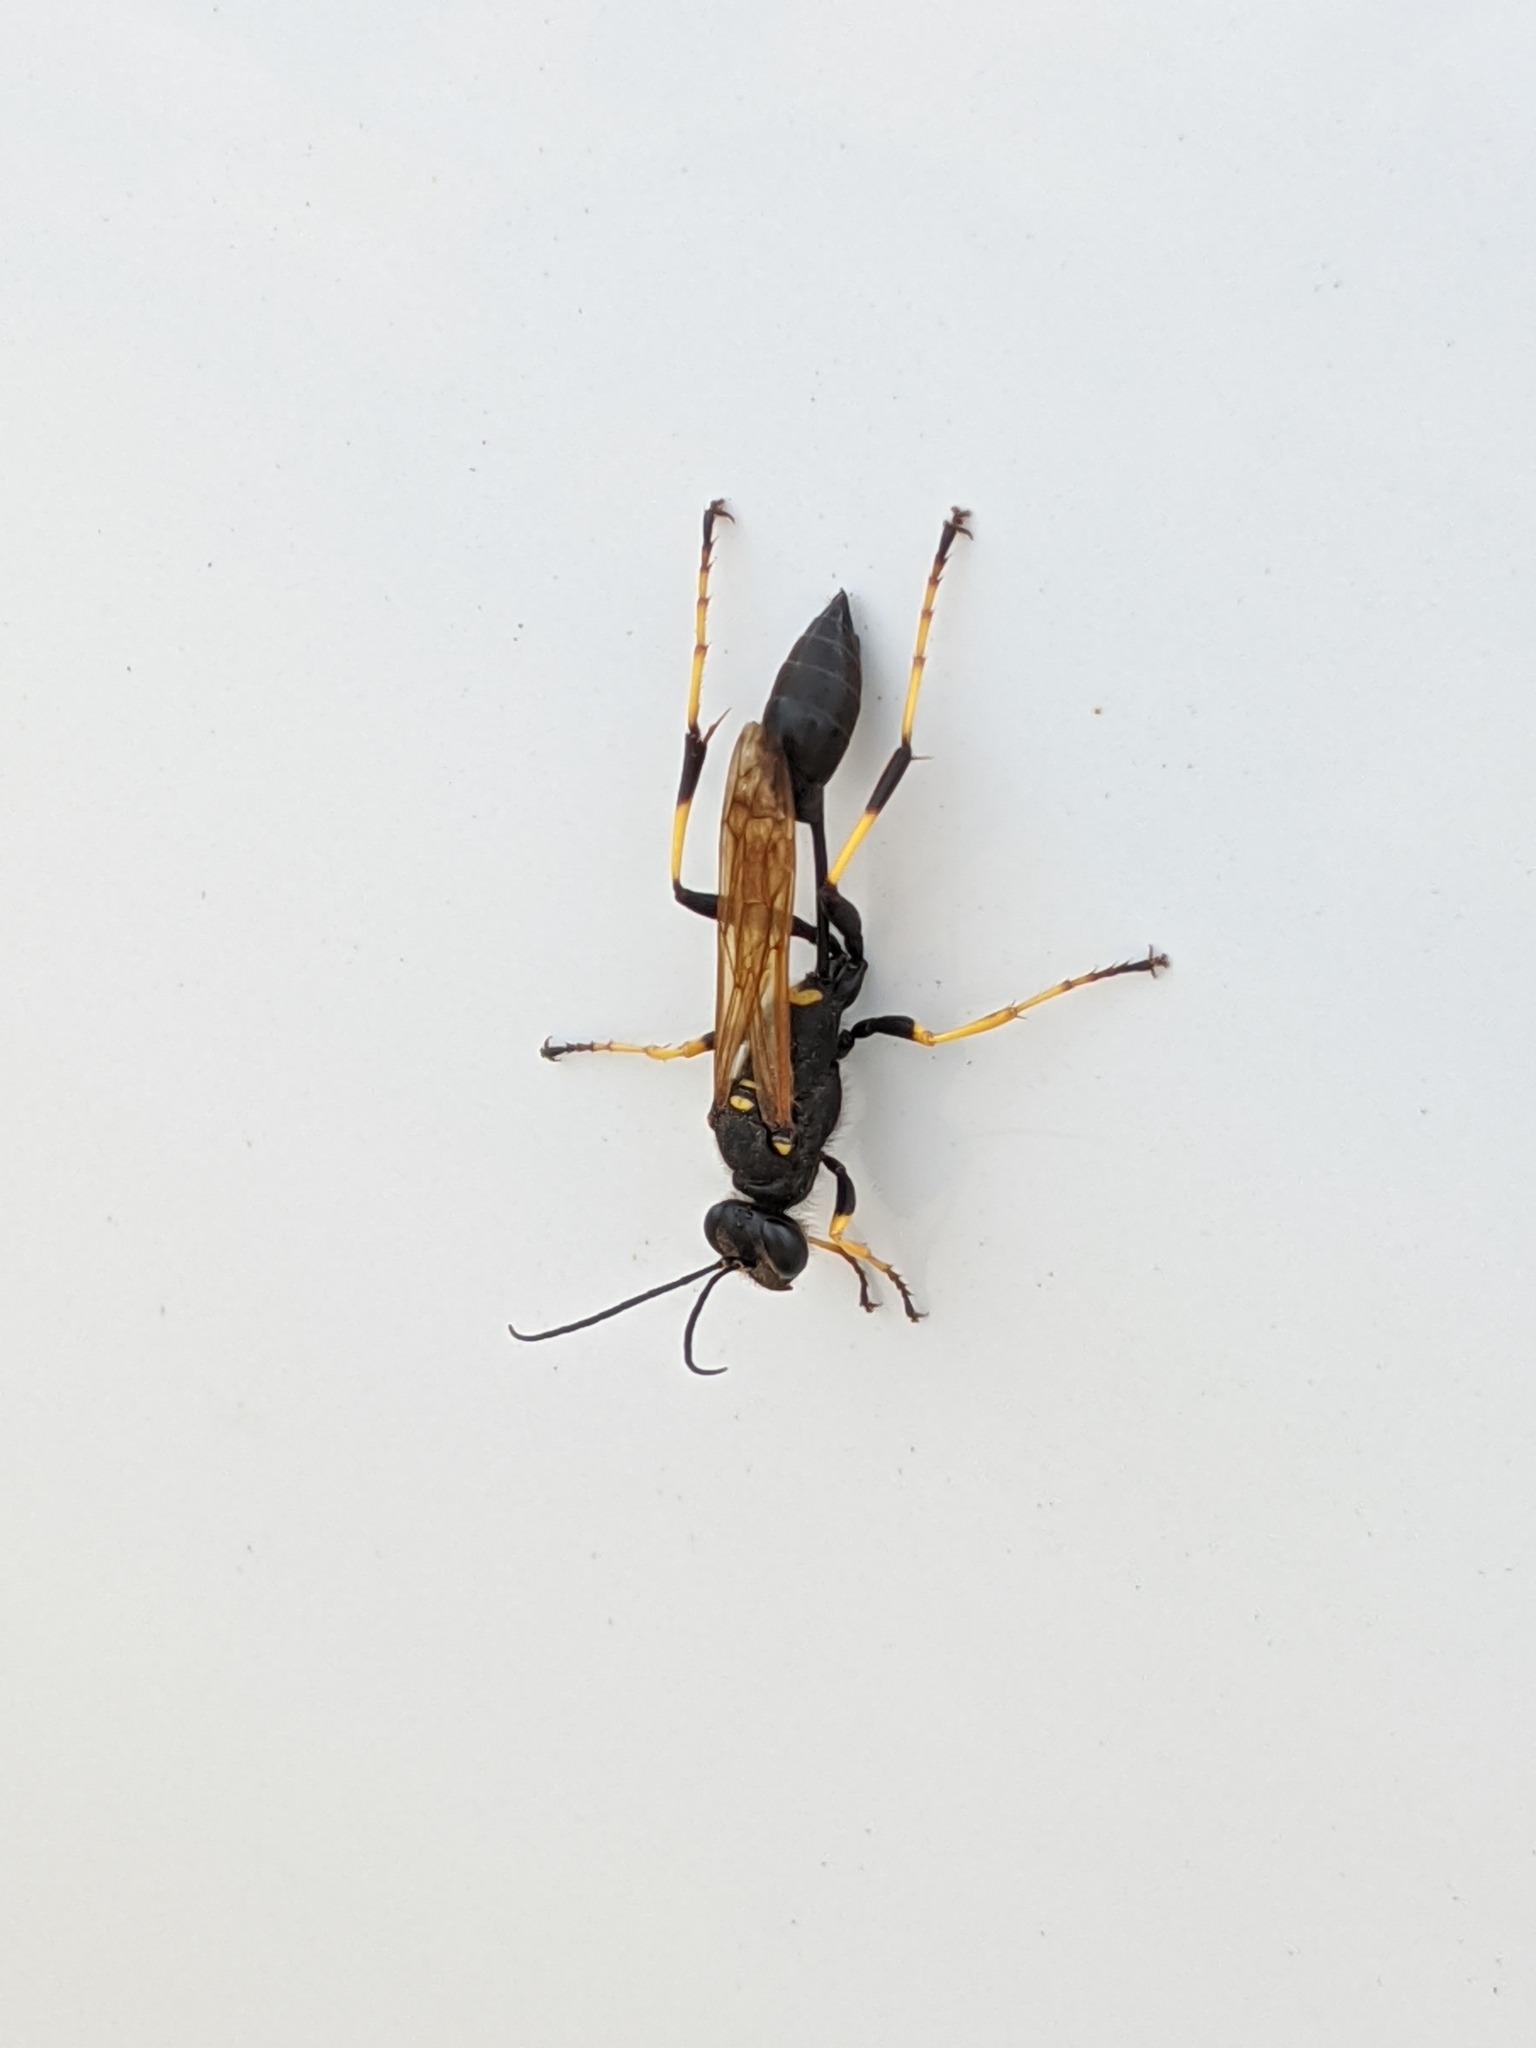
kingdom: Animalia
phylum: Arthropoda
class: Insecta
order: Hymenoptera
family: Sphecidae
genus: Sceliphron
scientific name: Sceliphron caementarium
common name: Mud dauber
